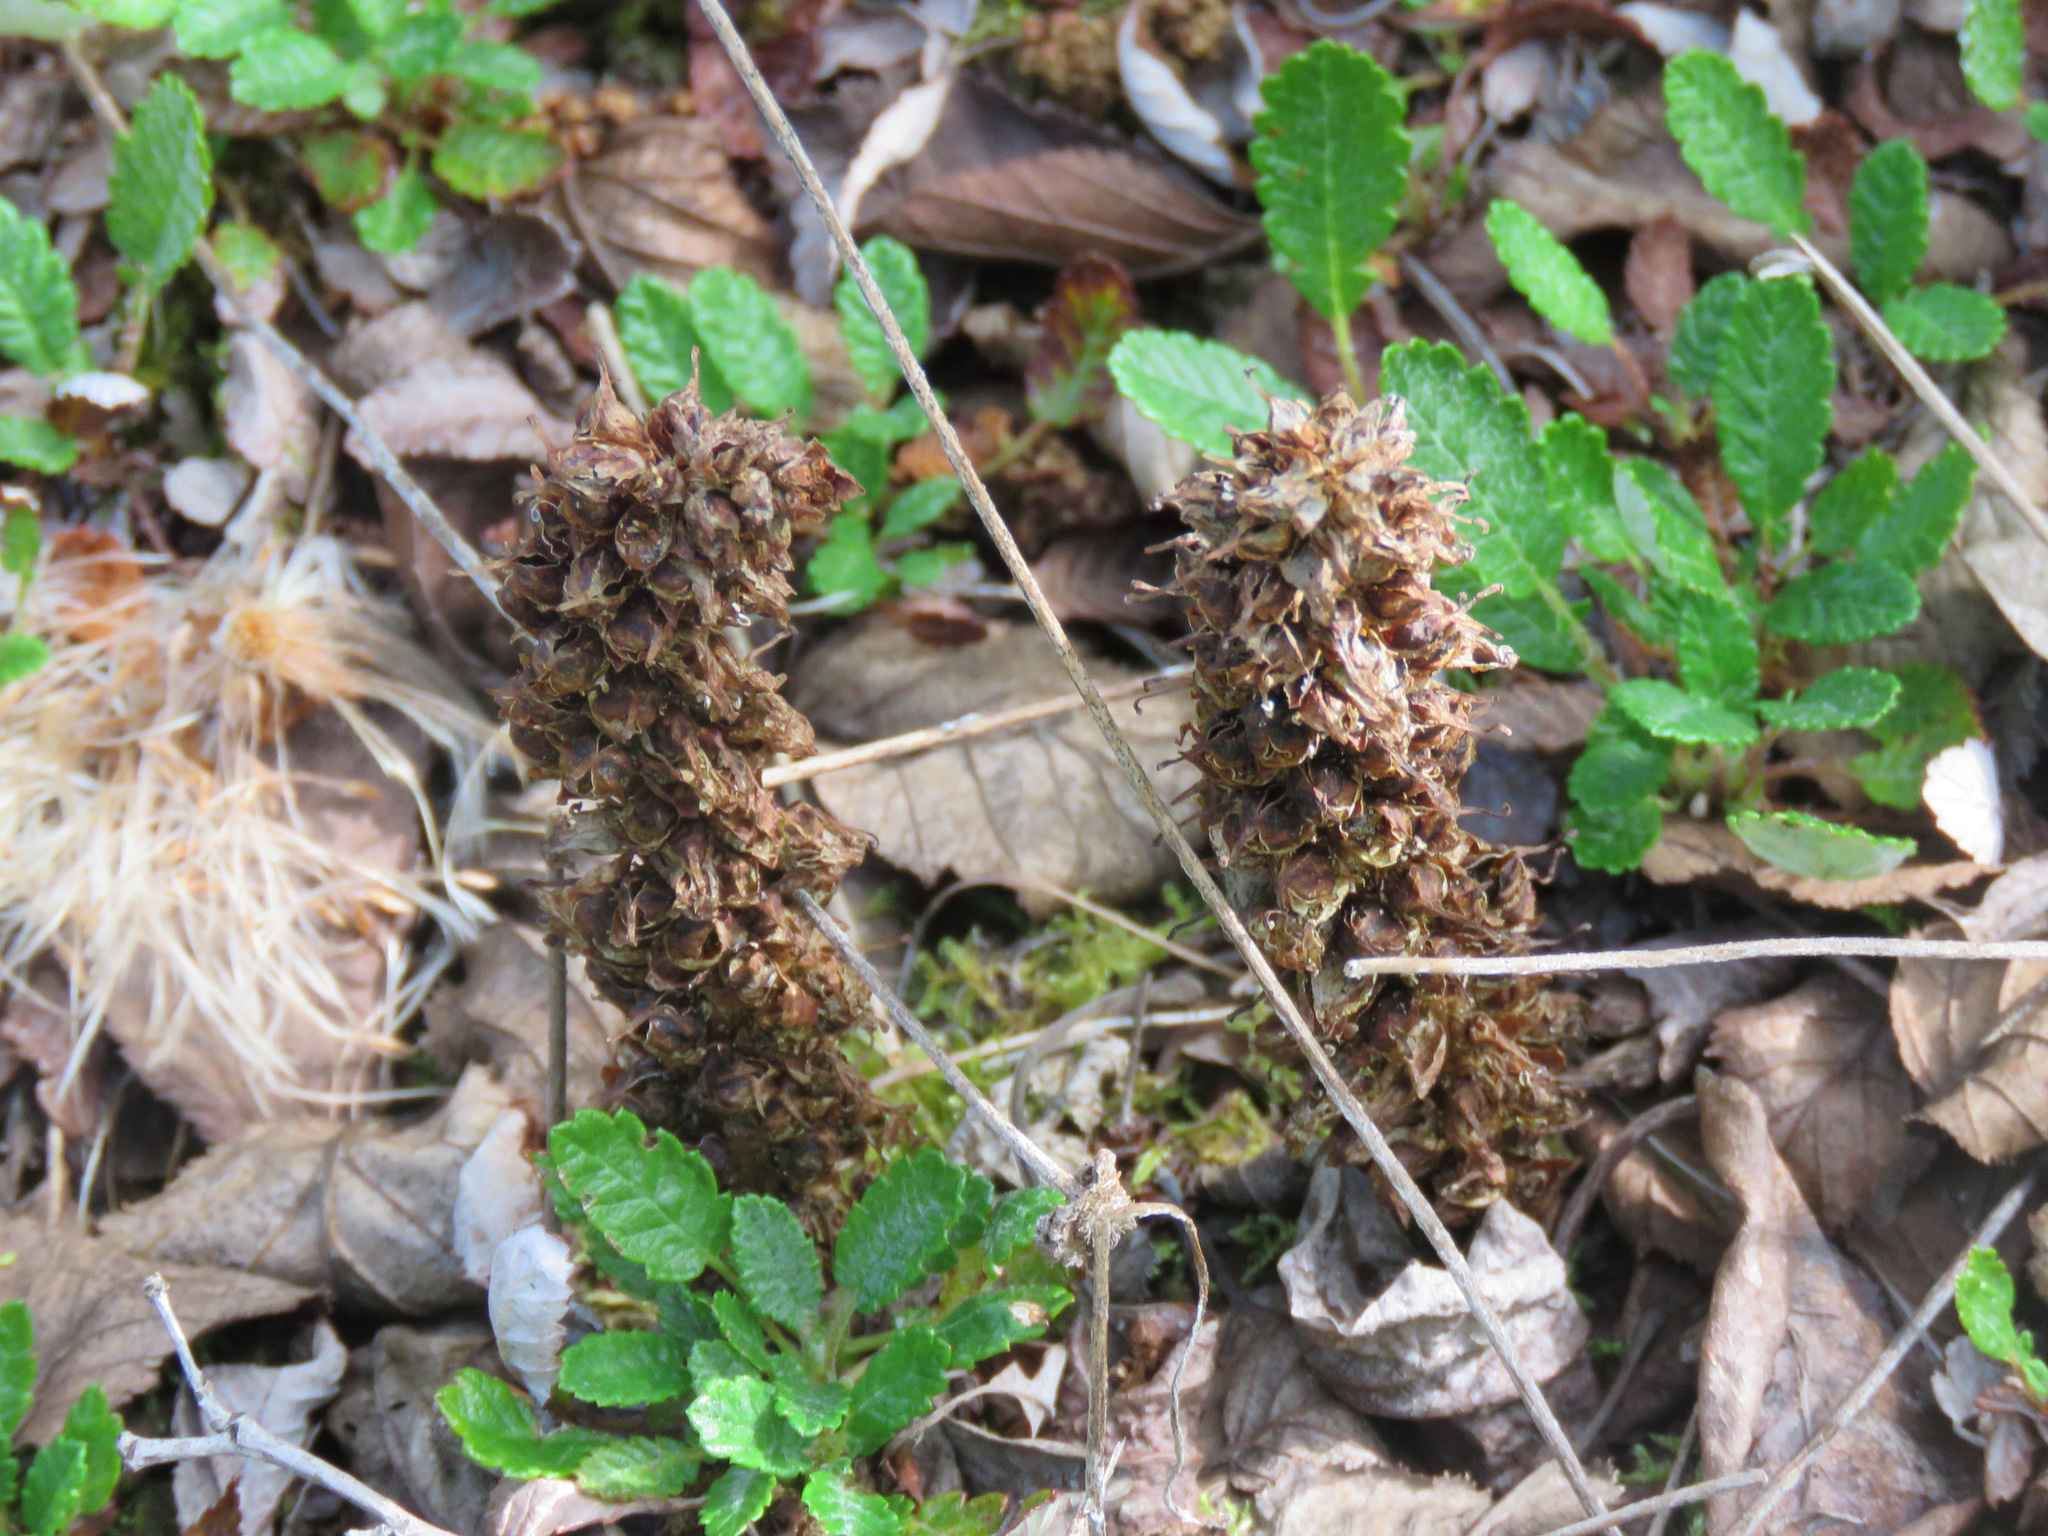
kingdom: Plantae
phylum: Tracheophyta
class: Magnoliopsida
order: Lamiales
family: Orobanchaceae
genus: Boschniakia
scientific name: Boschniakia rossica
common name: Poque
